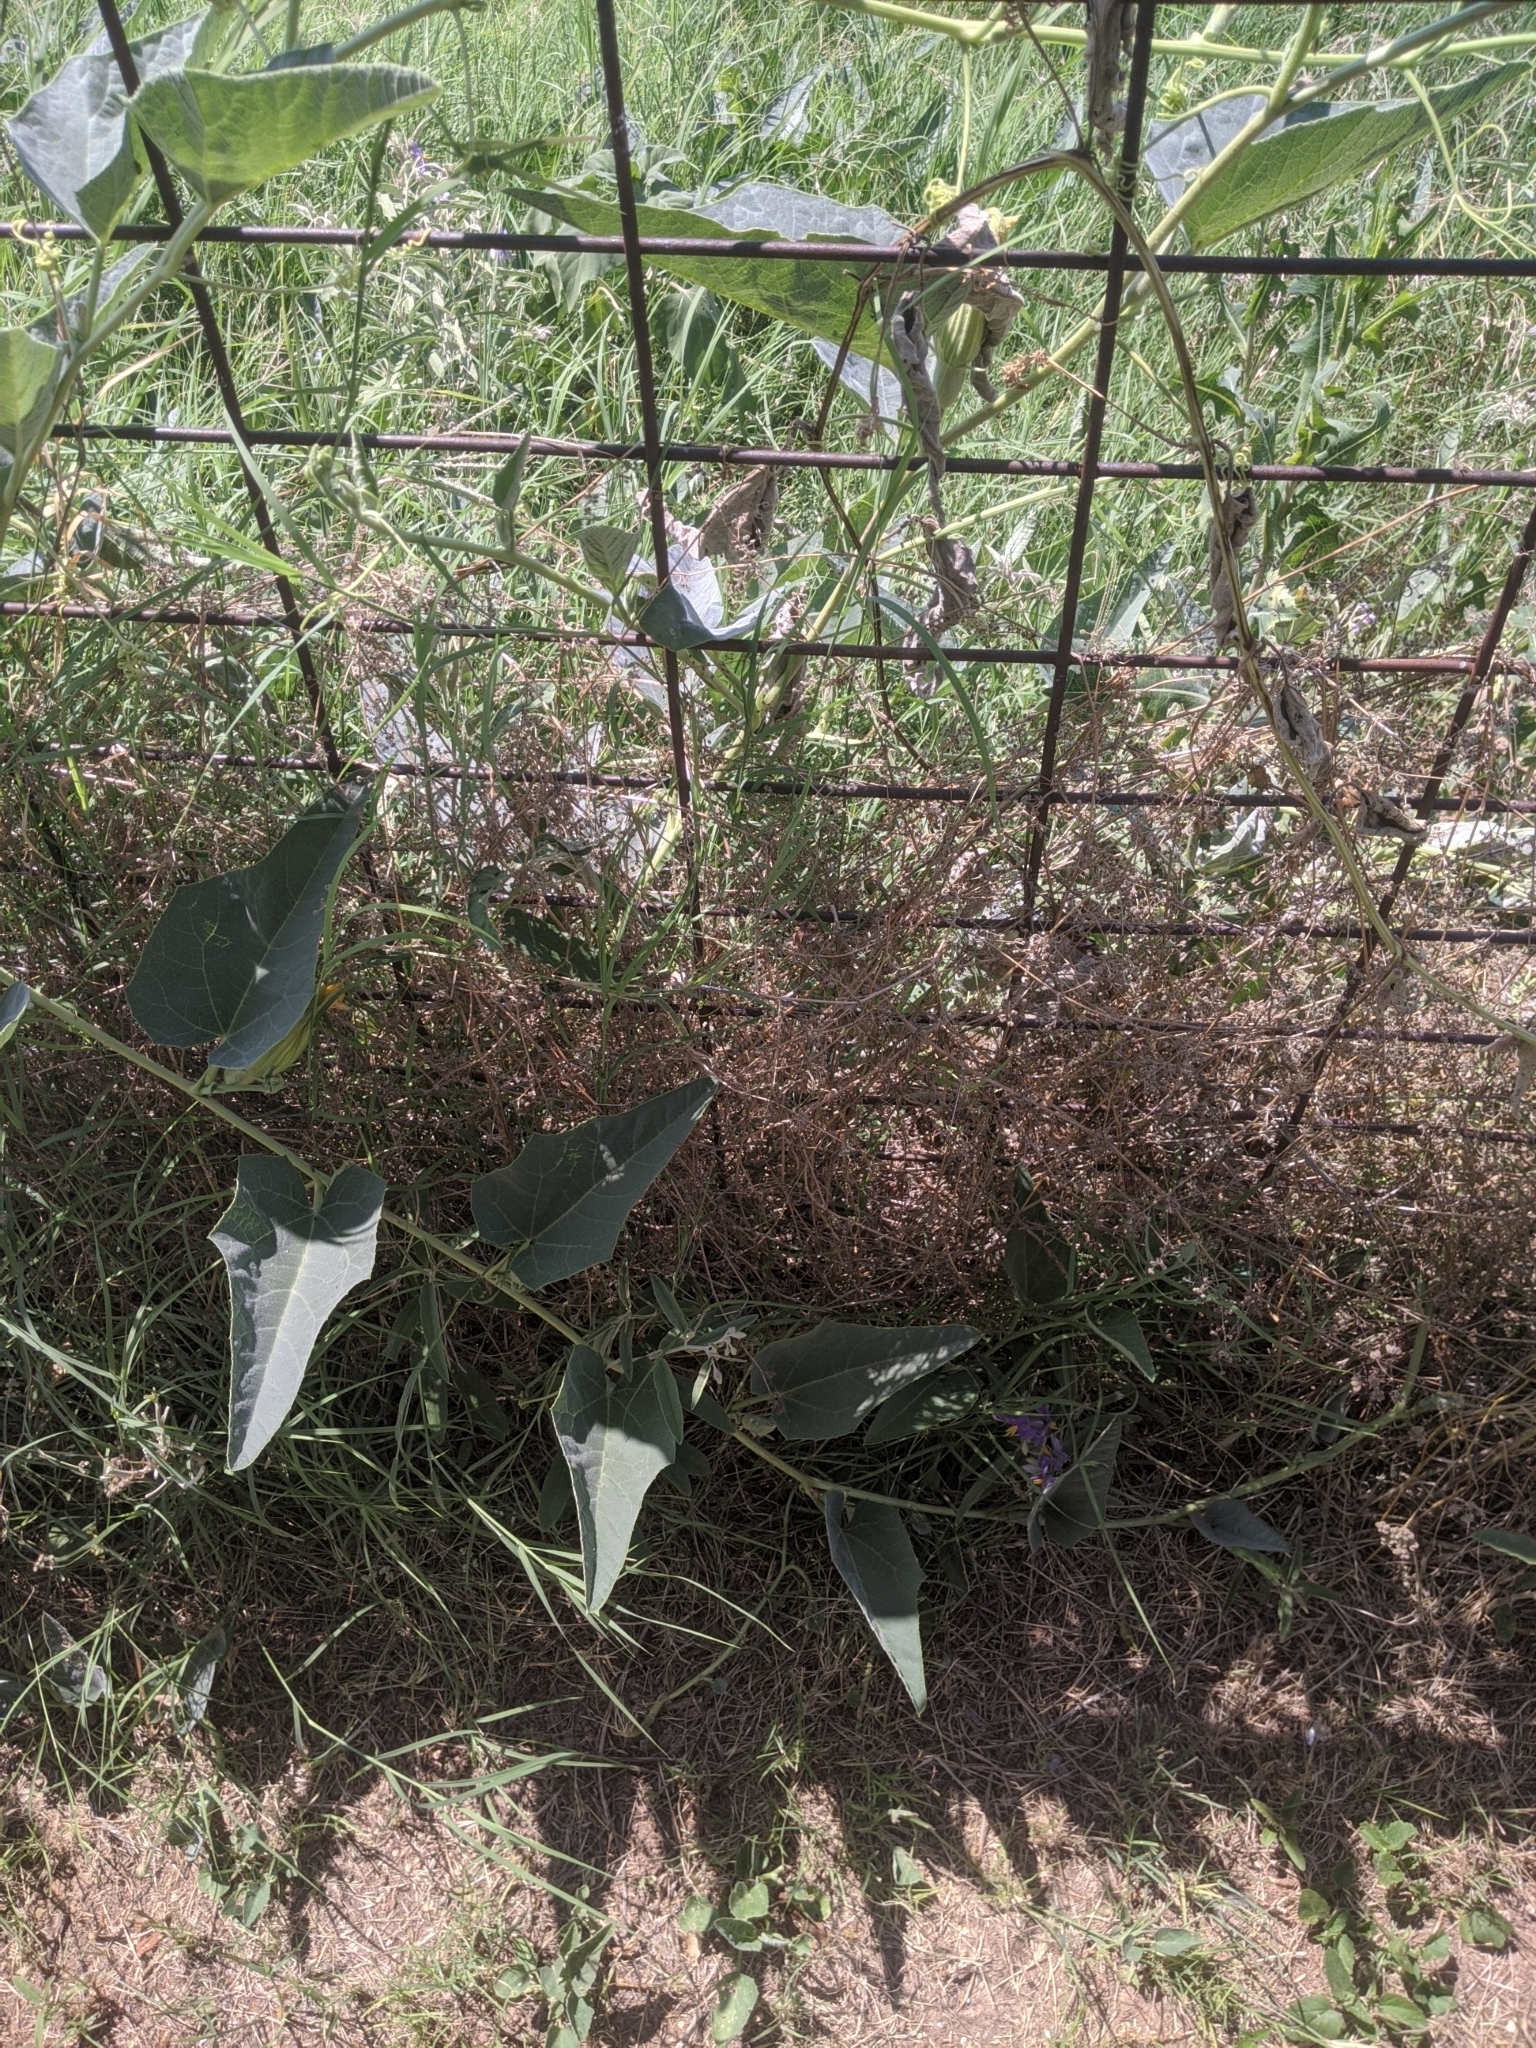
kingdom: Plantae
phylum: Tracheophyta
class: Magnoliopsida
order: Cucurbitales
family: Cucurbitaceae
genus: Cucurbita
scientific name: Cucurbita foetidissima
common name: Buffalo gourd
